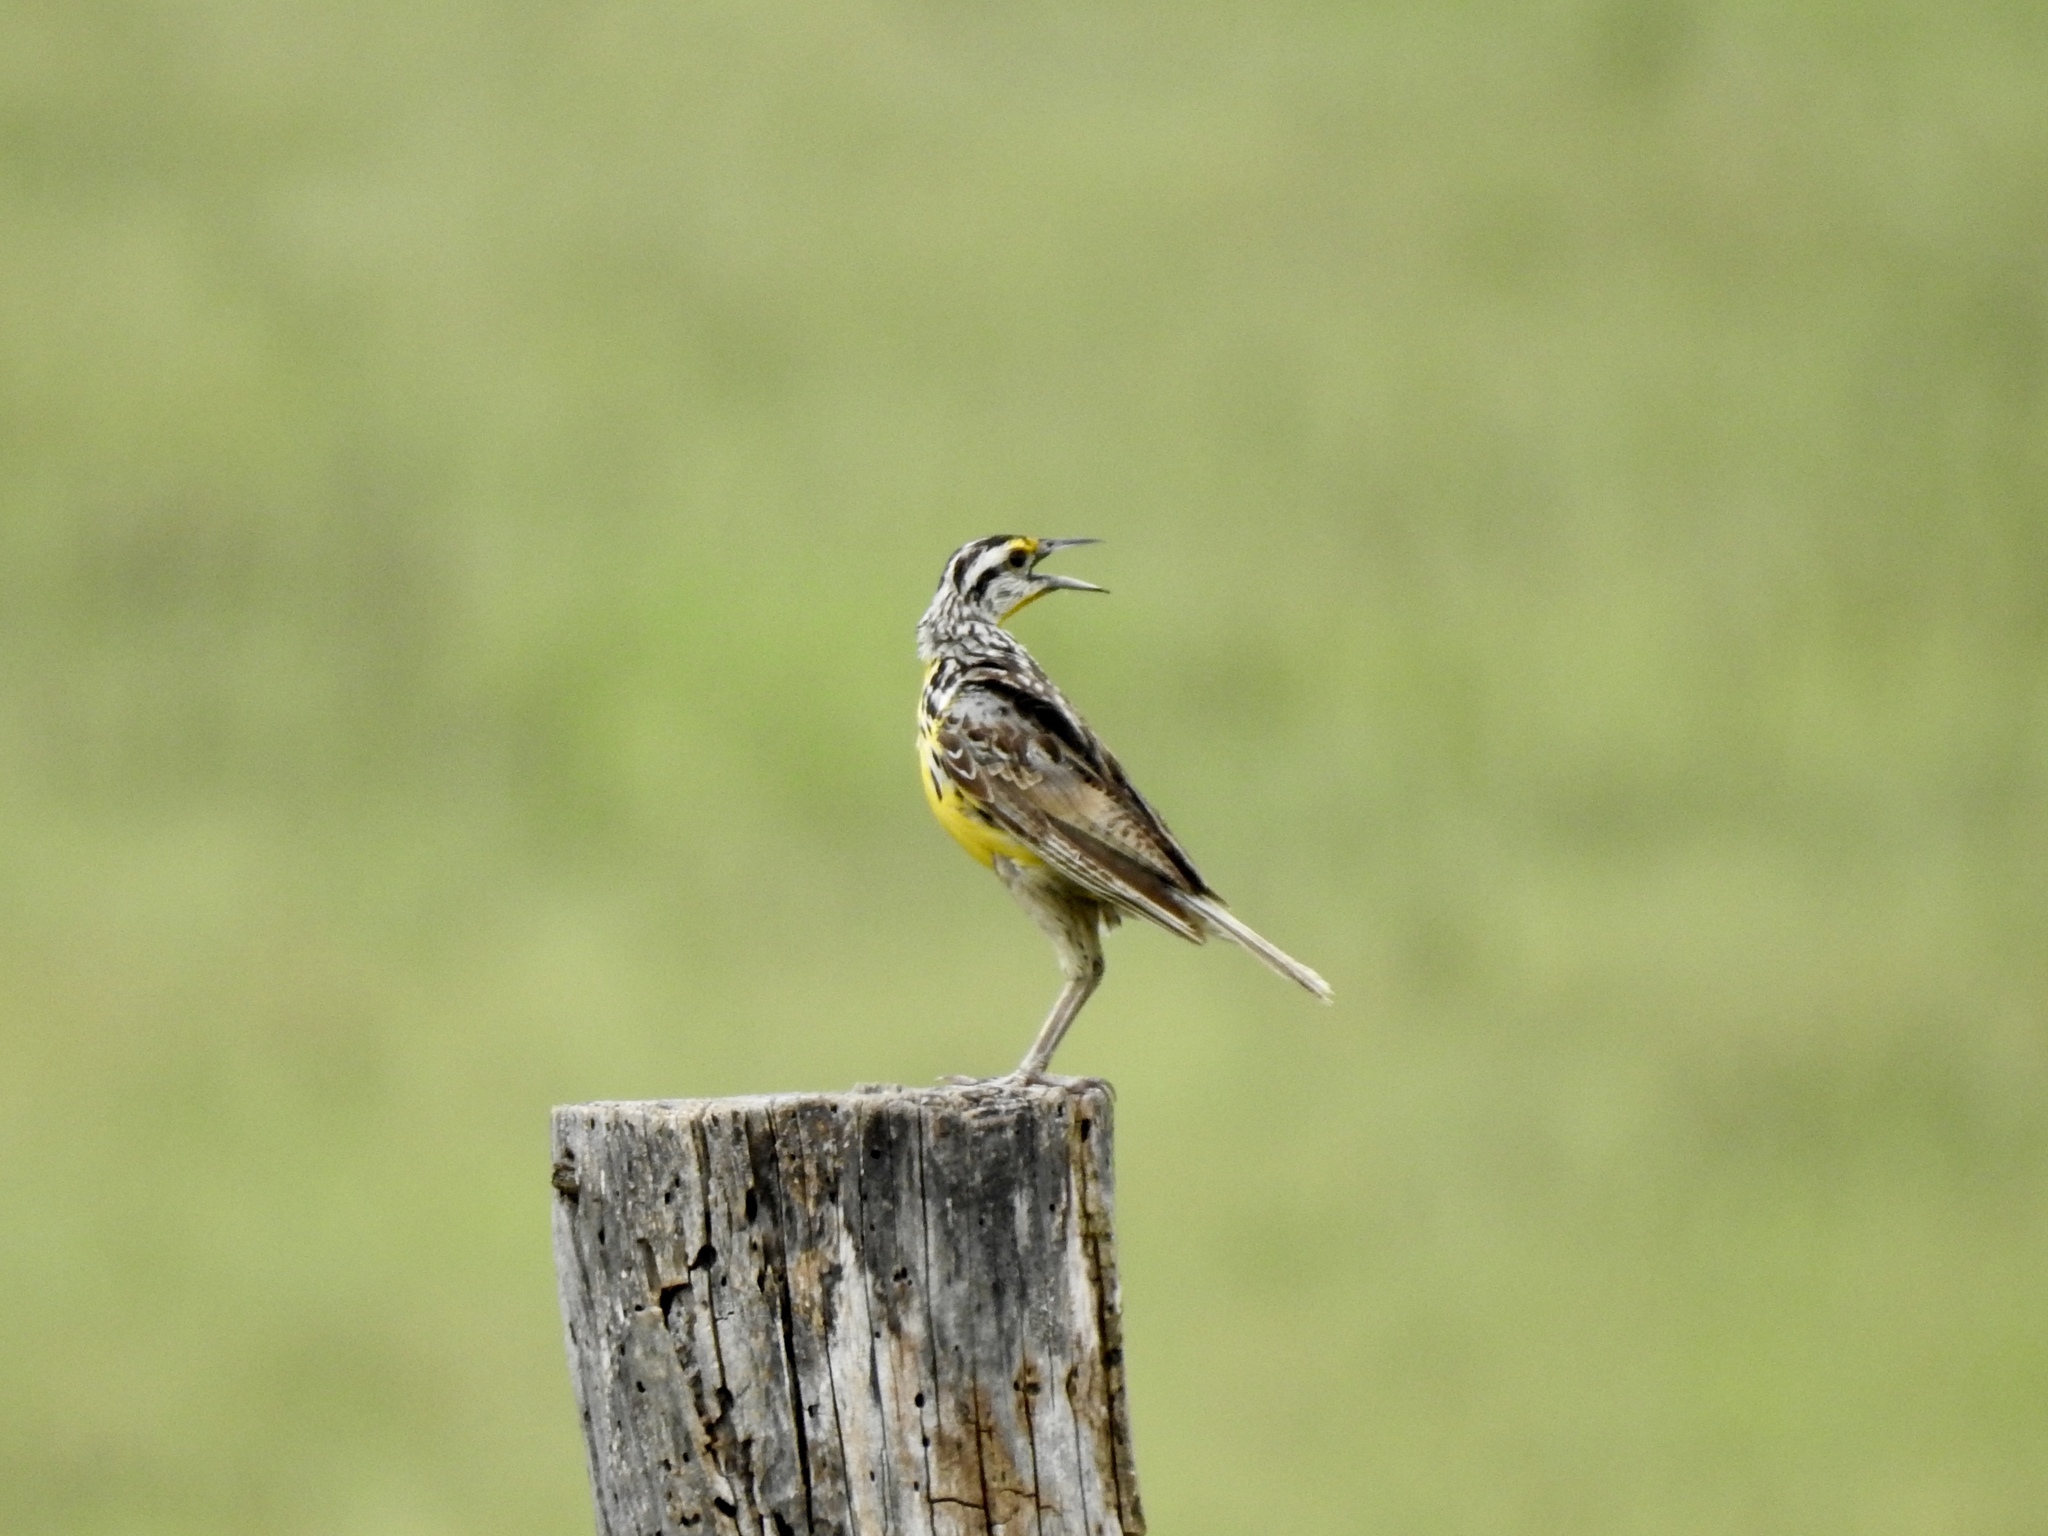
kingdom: Animalia
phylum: Chordata
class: Aves
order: Passeriformes
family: Icteridae
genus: Sturnella
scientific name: Sturnella magna
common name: Eastern meadowlark
